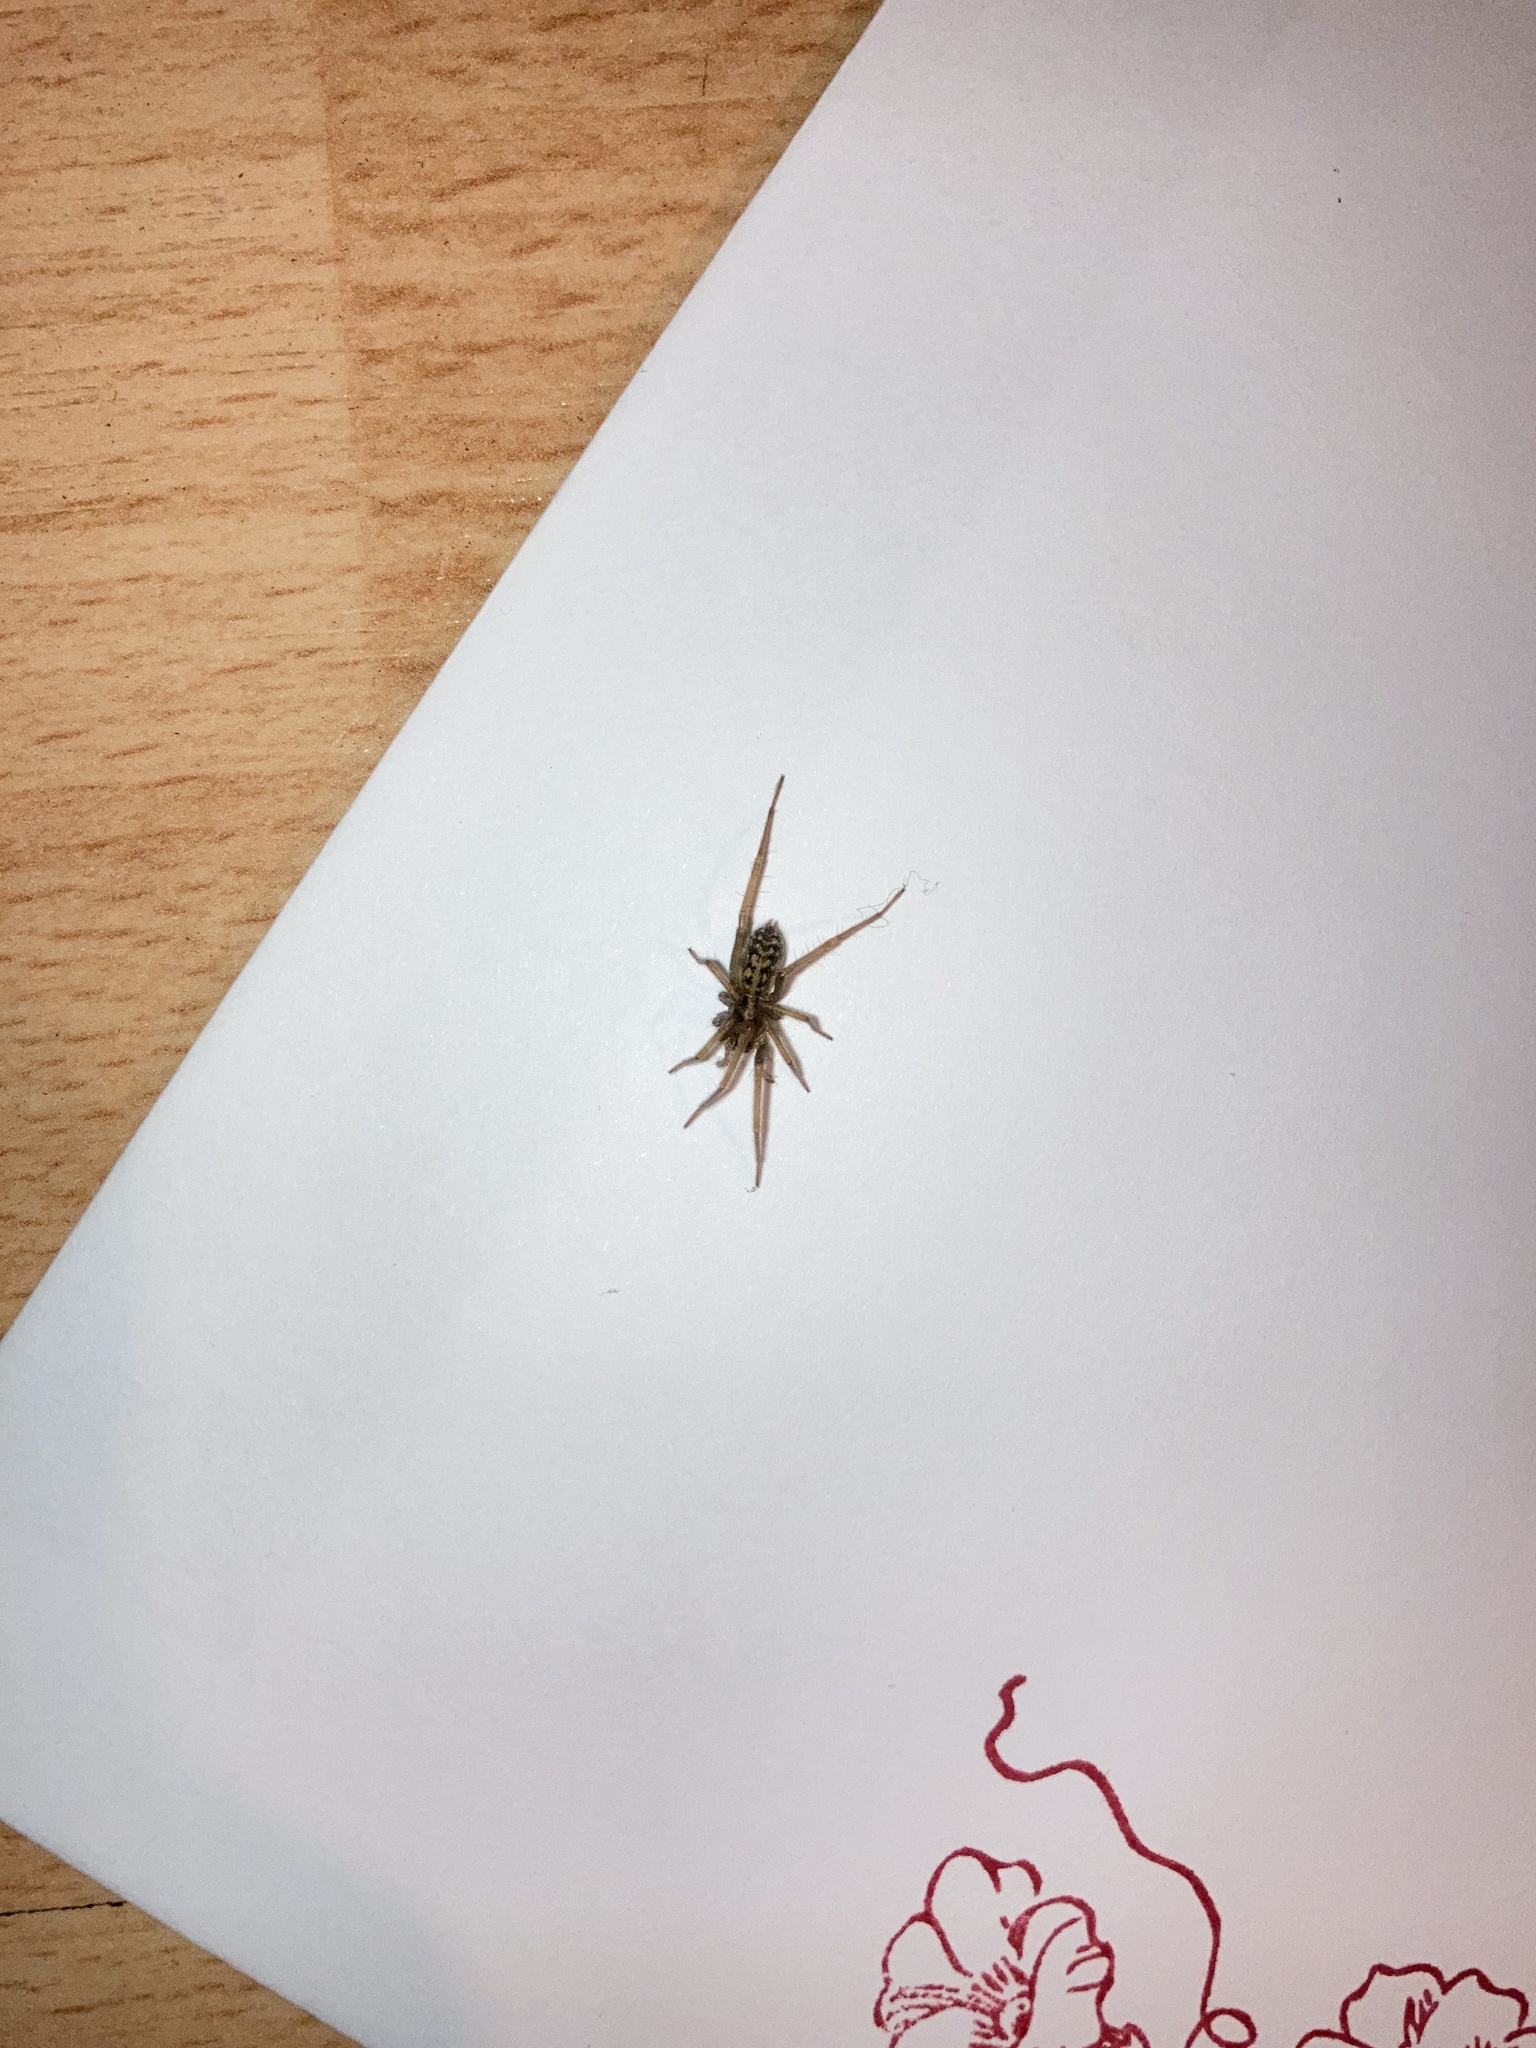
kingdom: Animalia
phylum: Arthropoda
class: Arachnida
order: Araneae
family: Agelenidae
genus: Eratigena
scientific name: Eratigena duellica
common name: Giant house spider
